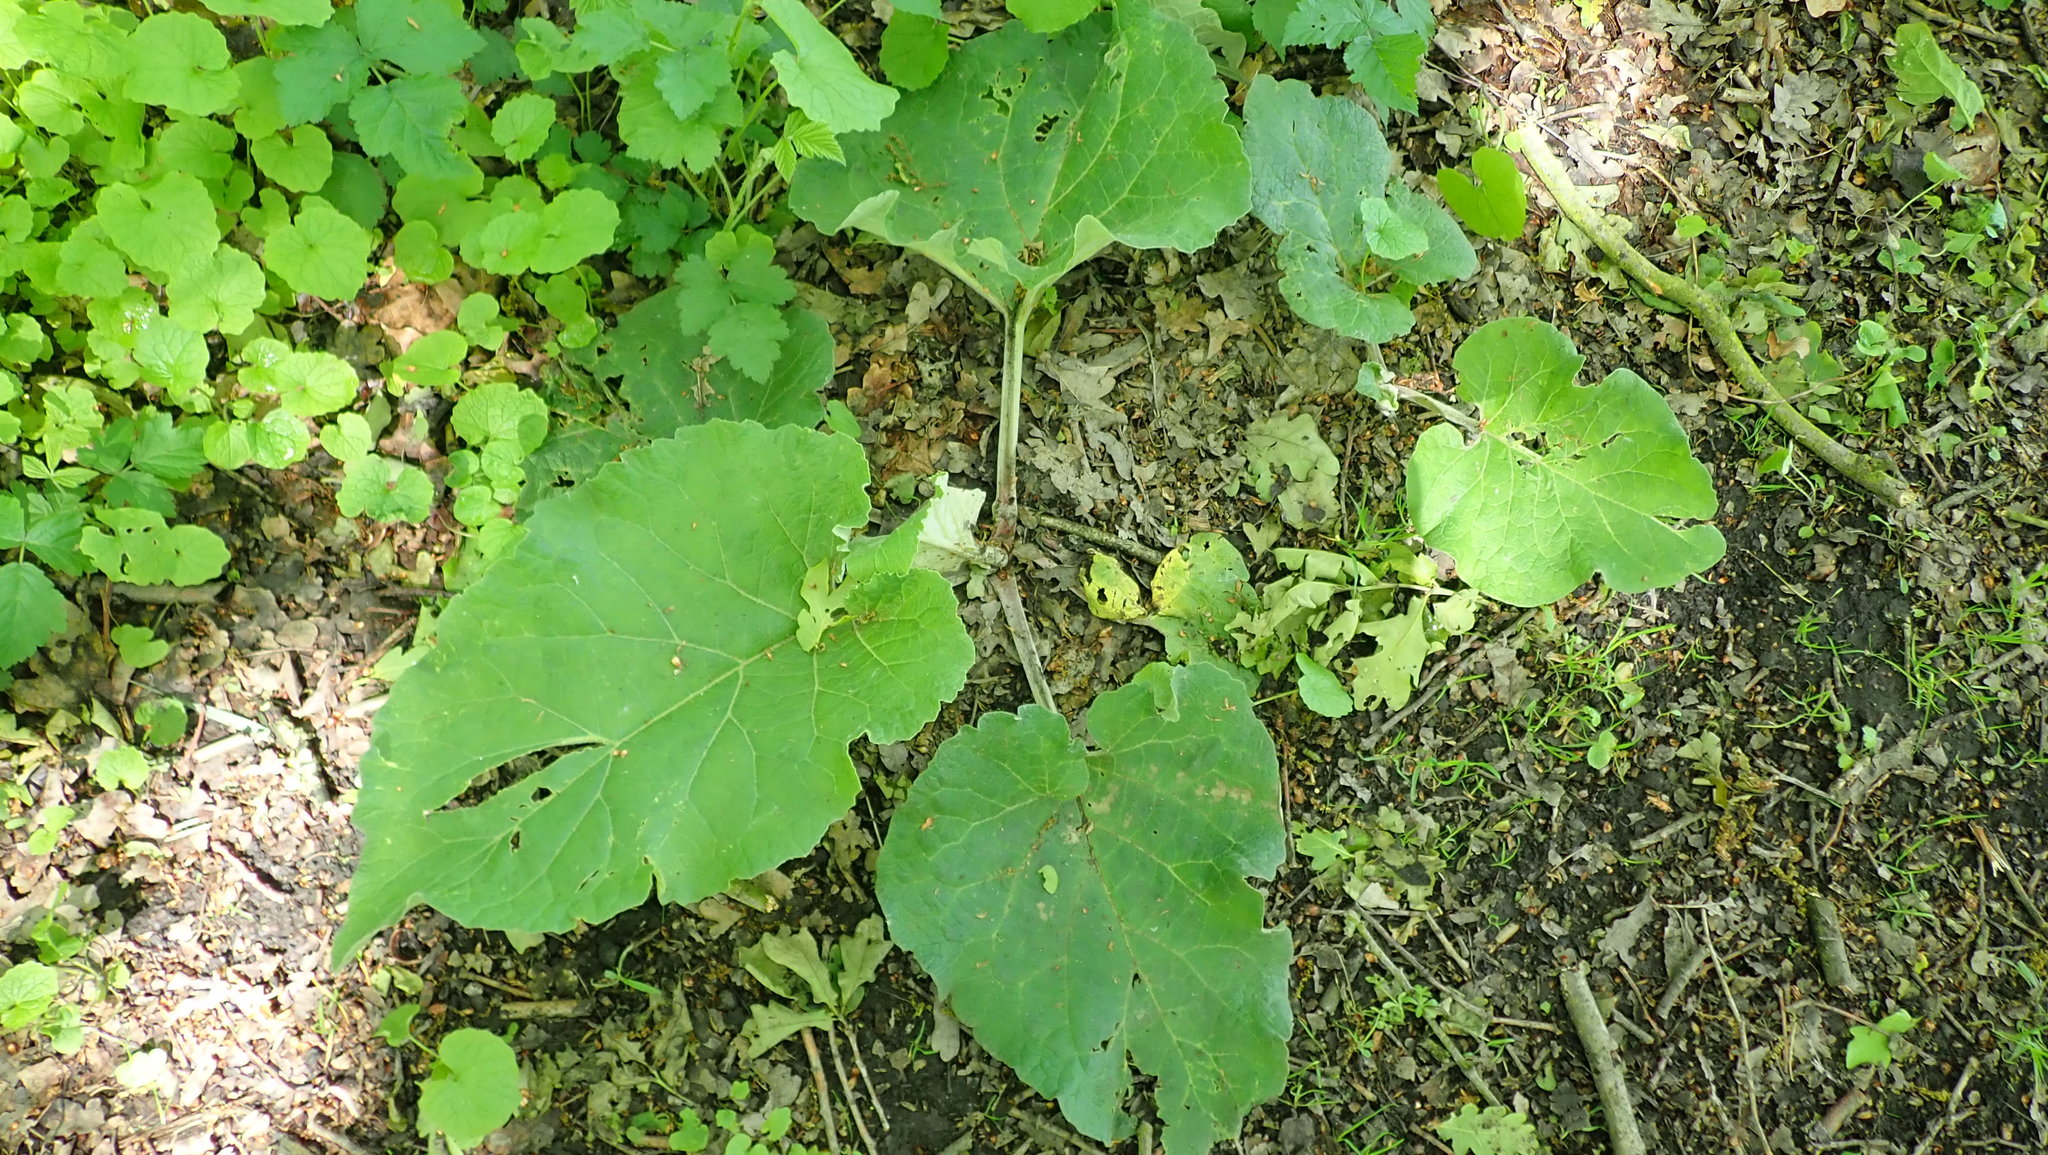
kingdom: Plantae
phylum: Tracheophyta
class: Magnoliopsida
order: Asterales
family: Asteraceae
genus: Arctium
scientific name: Arctium lappa
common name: Greater burdock
